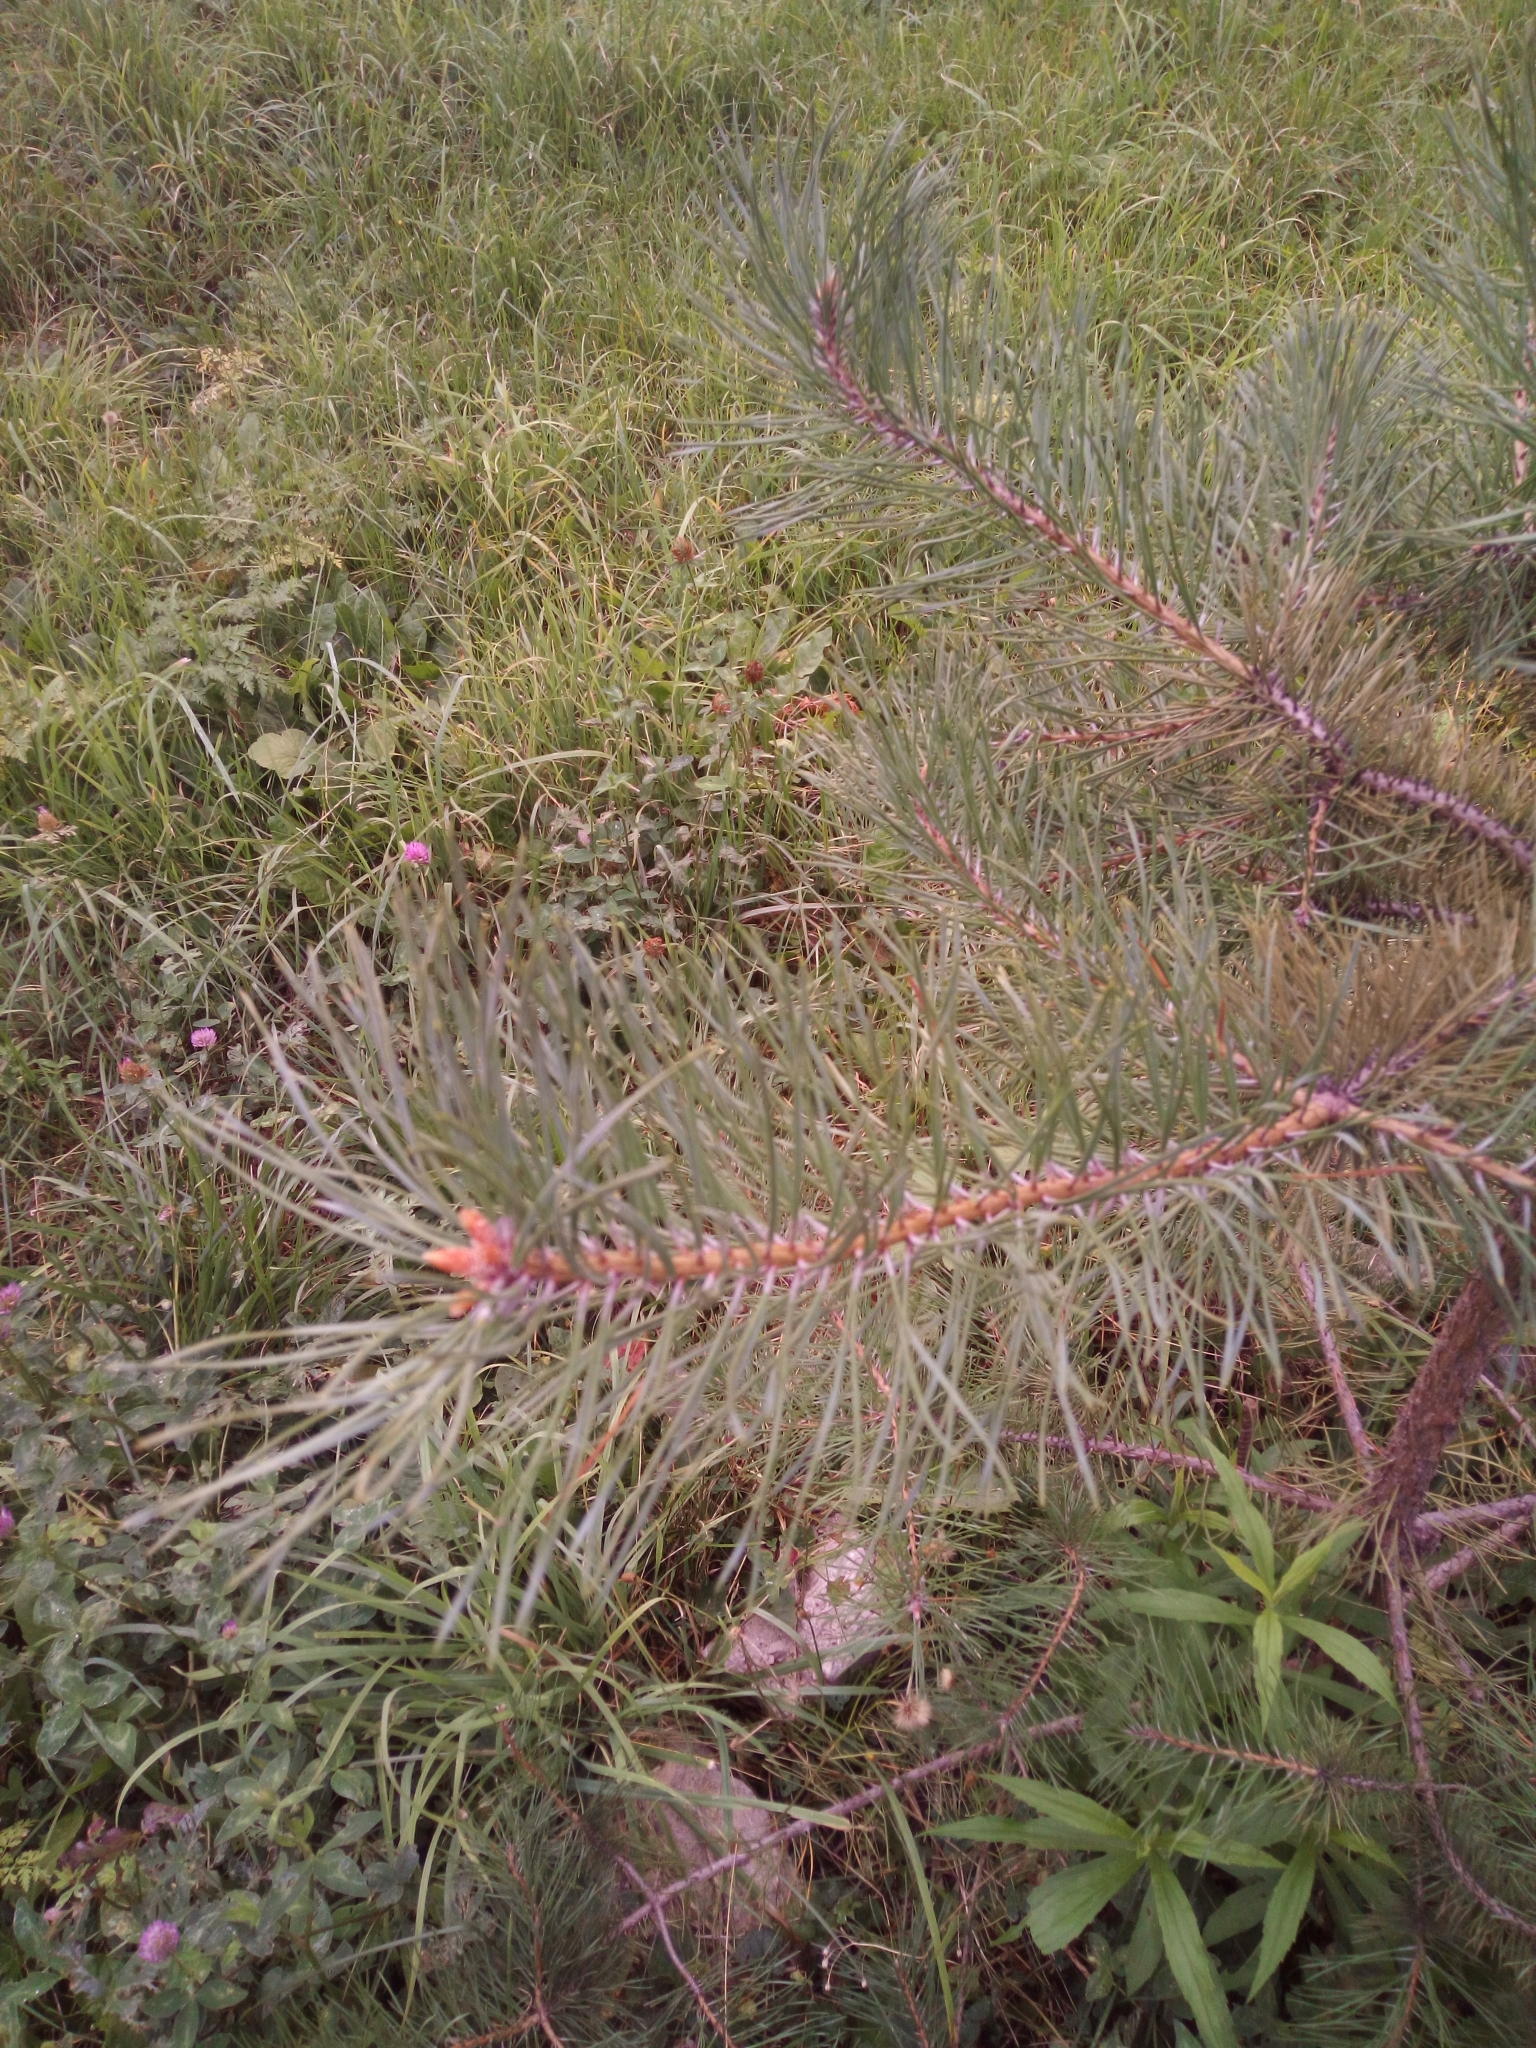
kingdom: Plantae
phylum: Tracheophyta
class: Pinopsida
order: Pinales
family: Pinaceae
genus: Pinus
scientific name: Pinus sylvestris
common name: Scots pine
